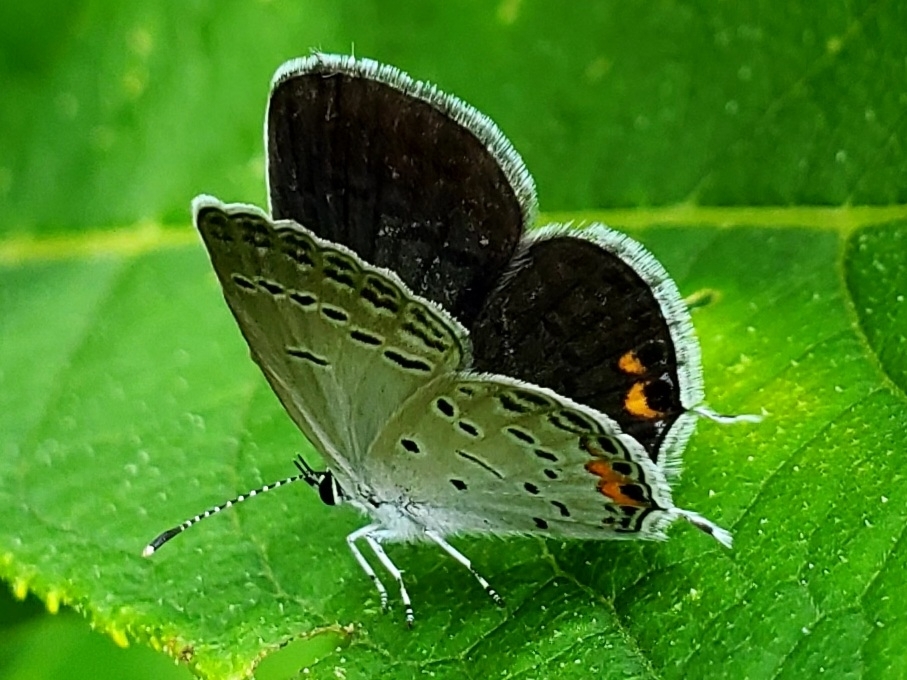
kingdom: Animalia
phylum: Arthropoda
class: Insecta
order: Lepidoptera
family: Lycaenidae
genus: Elkalyce
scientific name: Elkalyce comyntas
